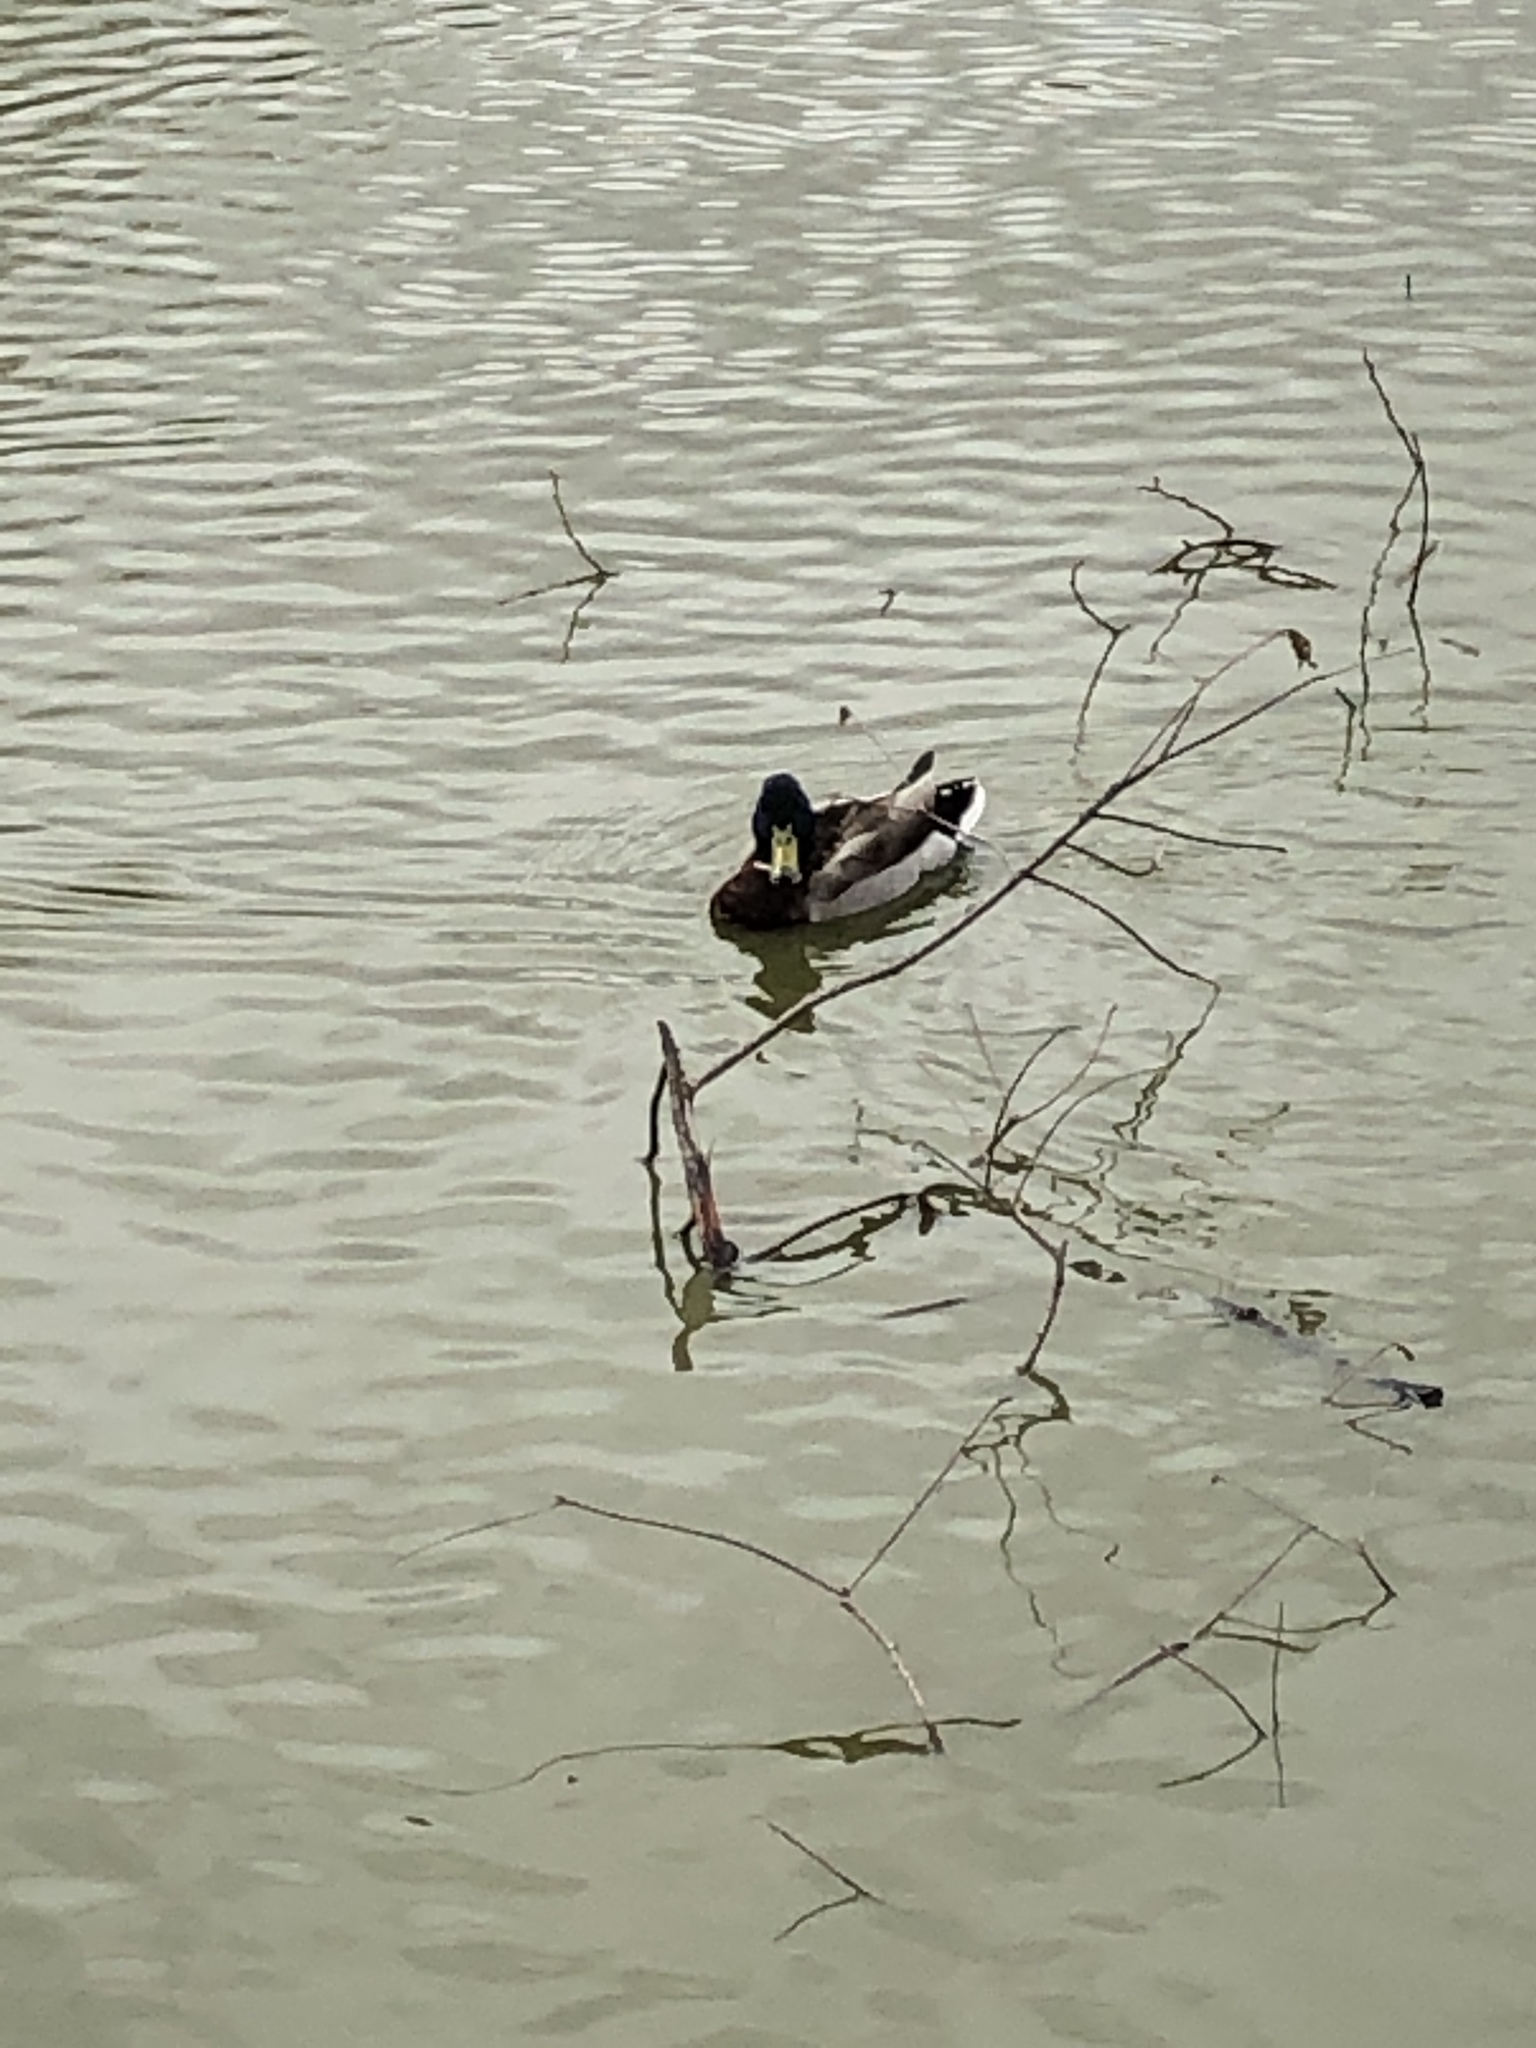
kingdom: Animalia
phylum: Chordata
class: Aves
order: Anseriformes
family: Anatidae
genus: Anas
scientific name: Anas platyrhynchos
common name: Mallard
